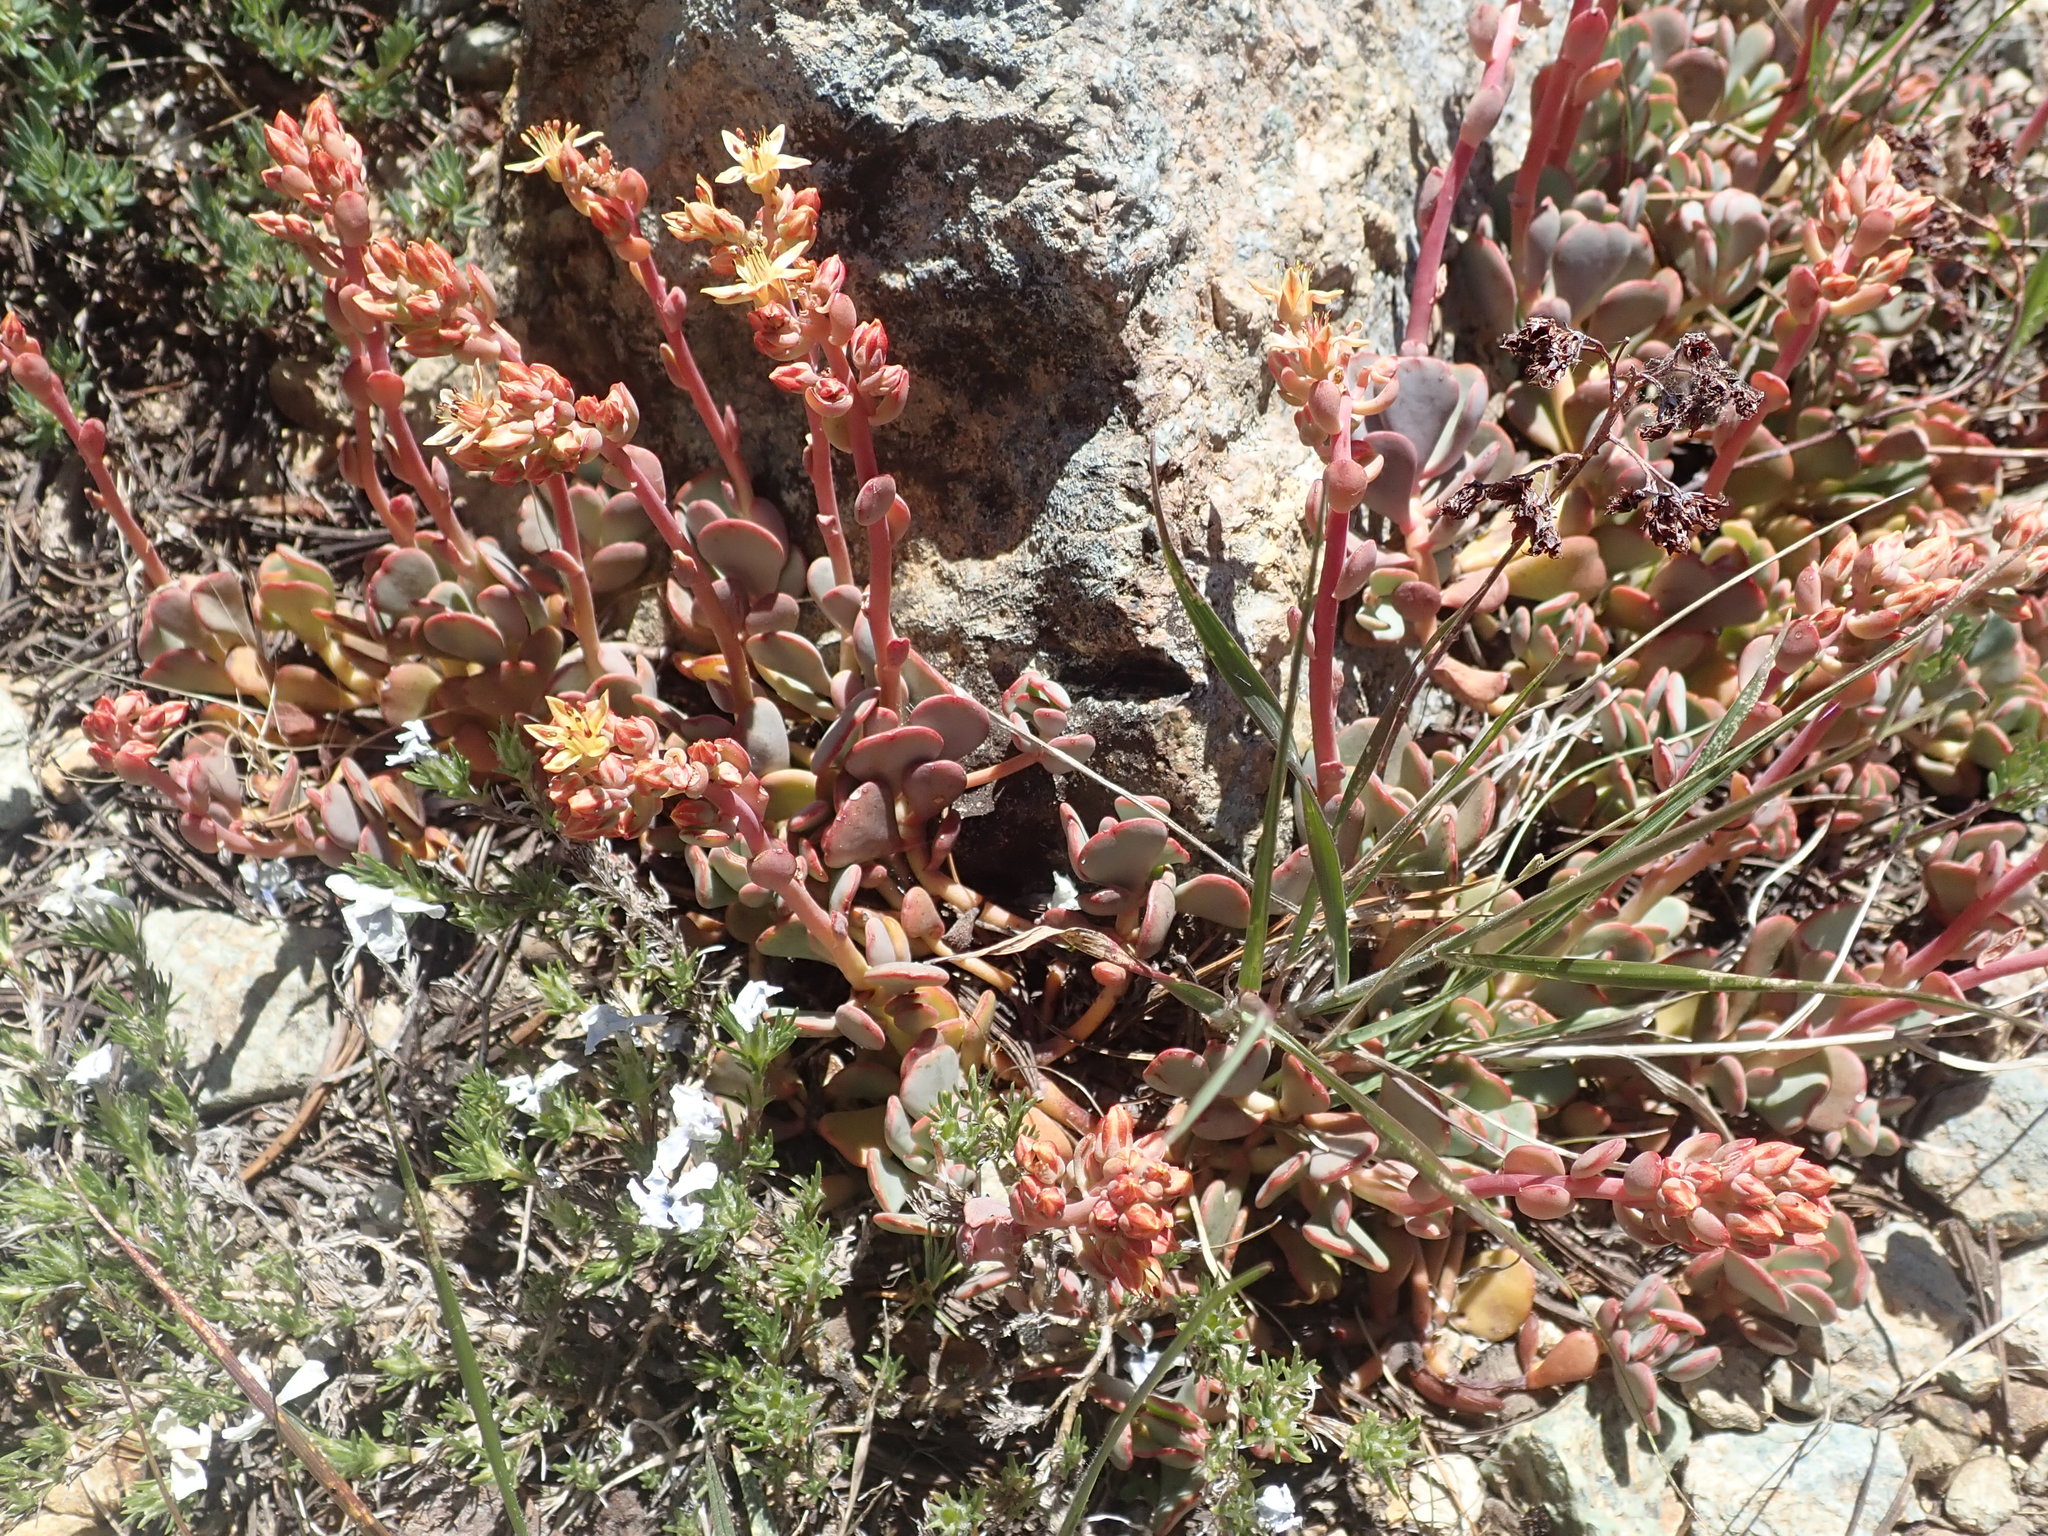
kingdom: Plantae
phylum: Tracheophyta
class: Magnoliopsida
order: Saxifragales
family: Crassulaceae
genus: Sedum
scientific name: Sedum obtusatum
